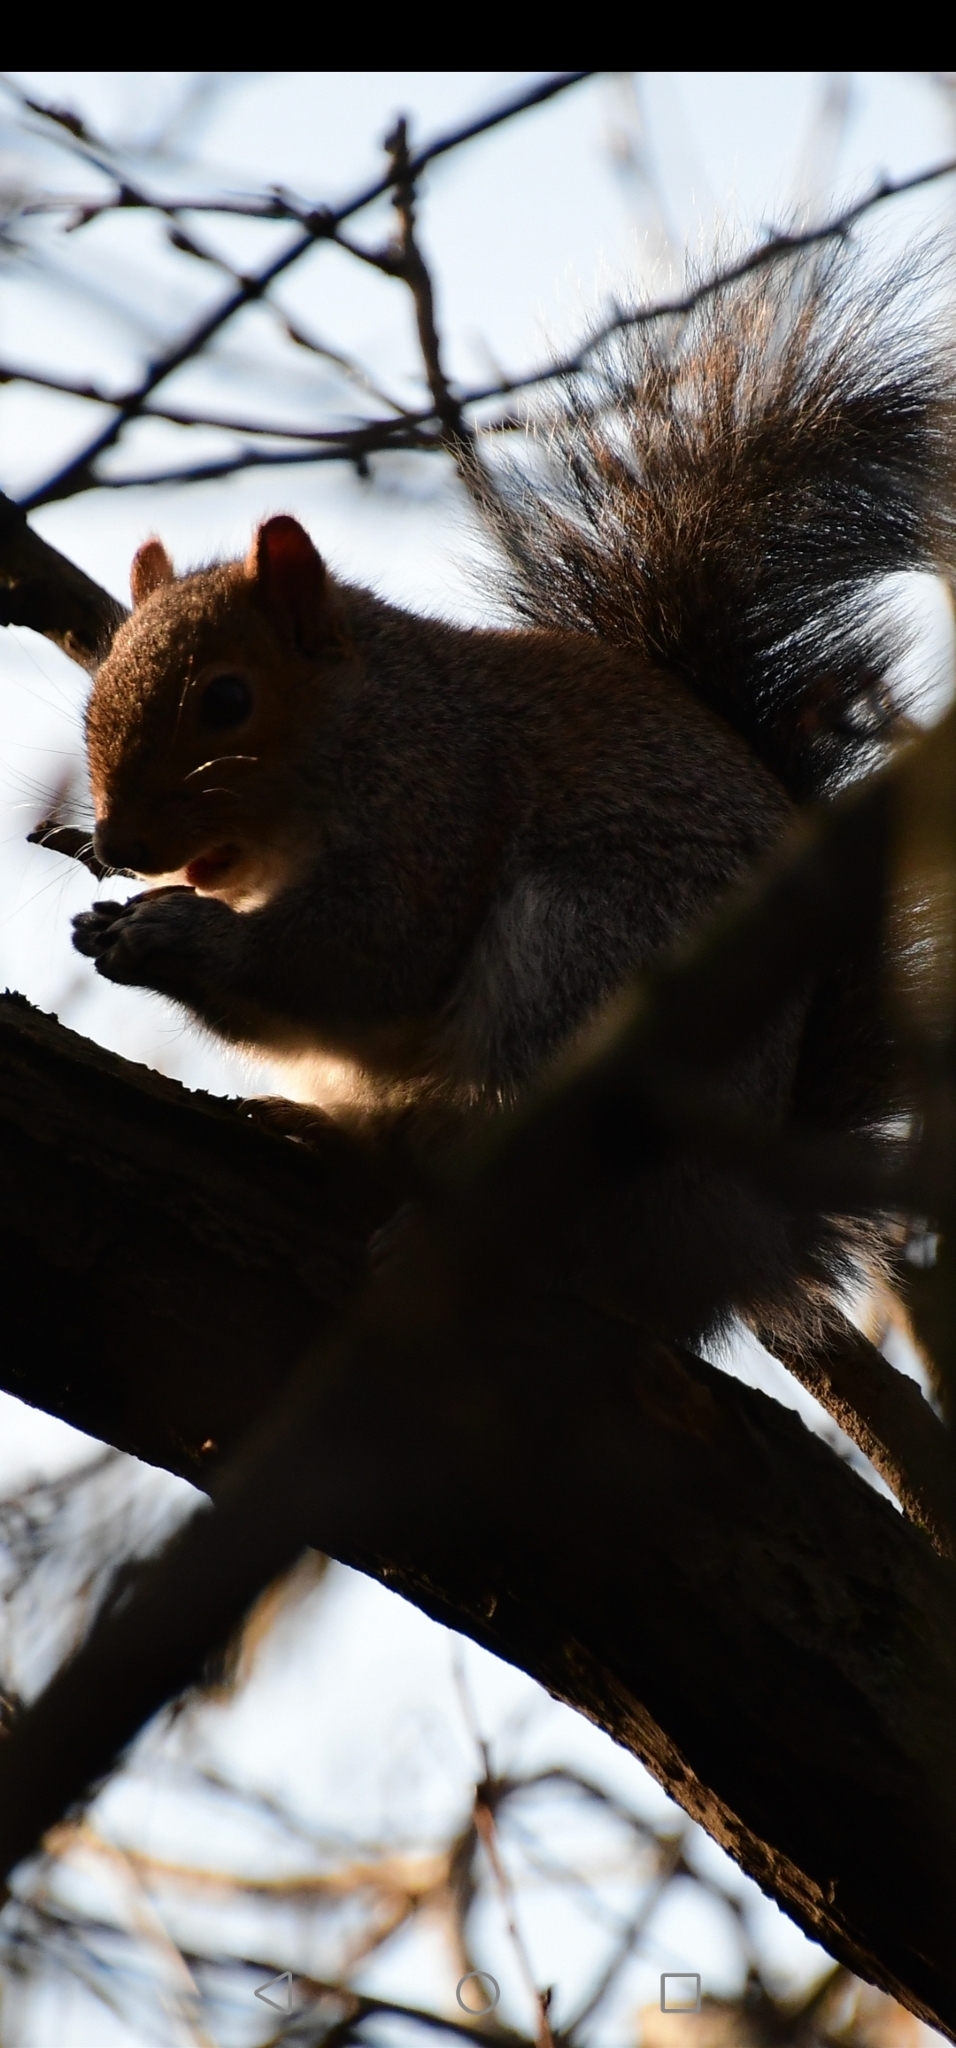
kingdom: Animalia
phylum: Chordata
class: Mammalia
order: Rodentia
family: Sciuridae
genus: Sciurus
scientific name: Sciurus carolinensis
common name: Eastern gray squirrel
